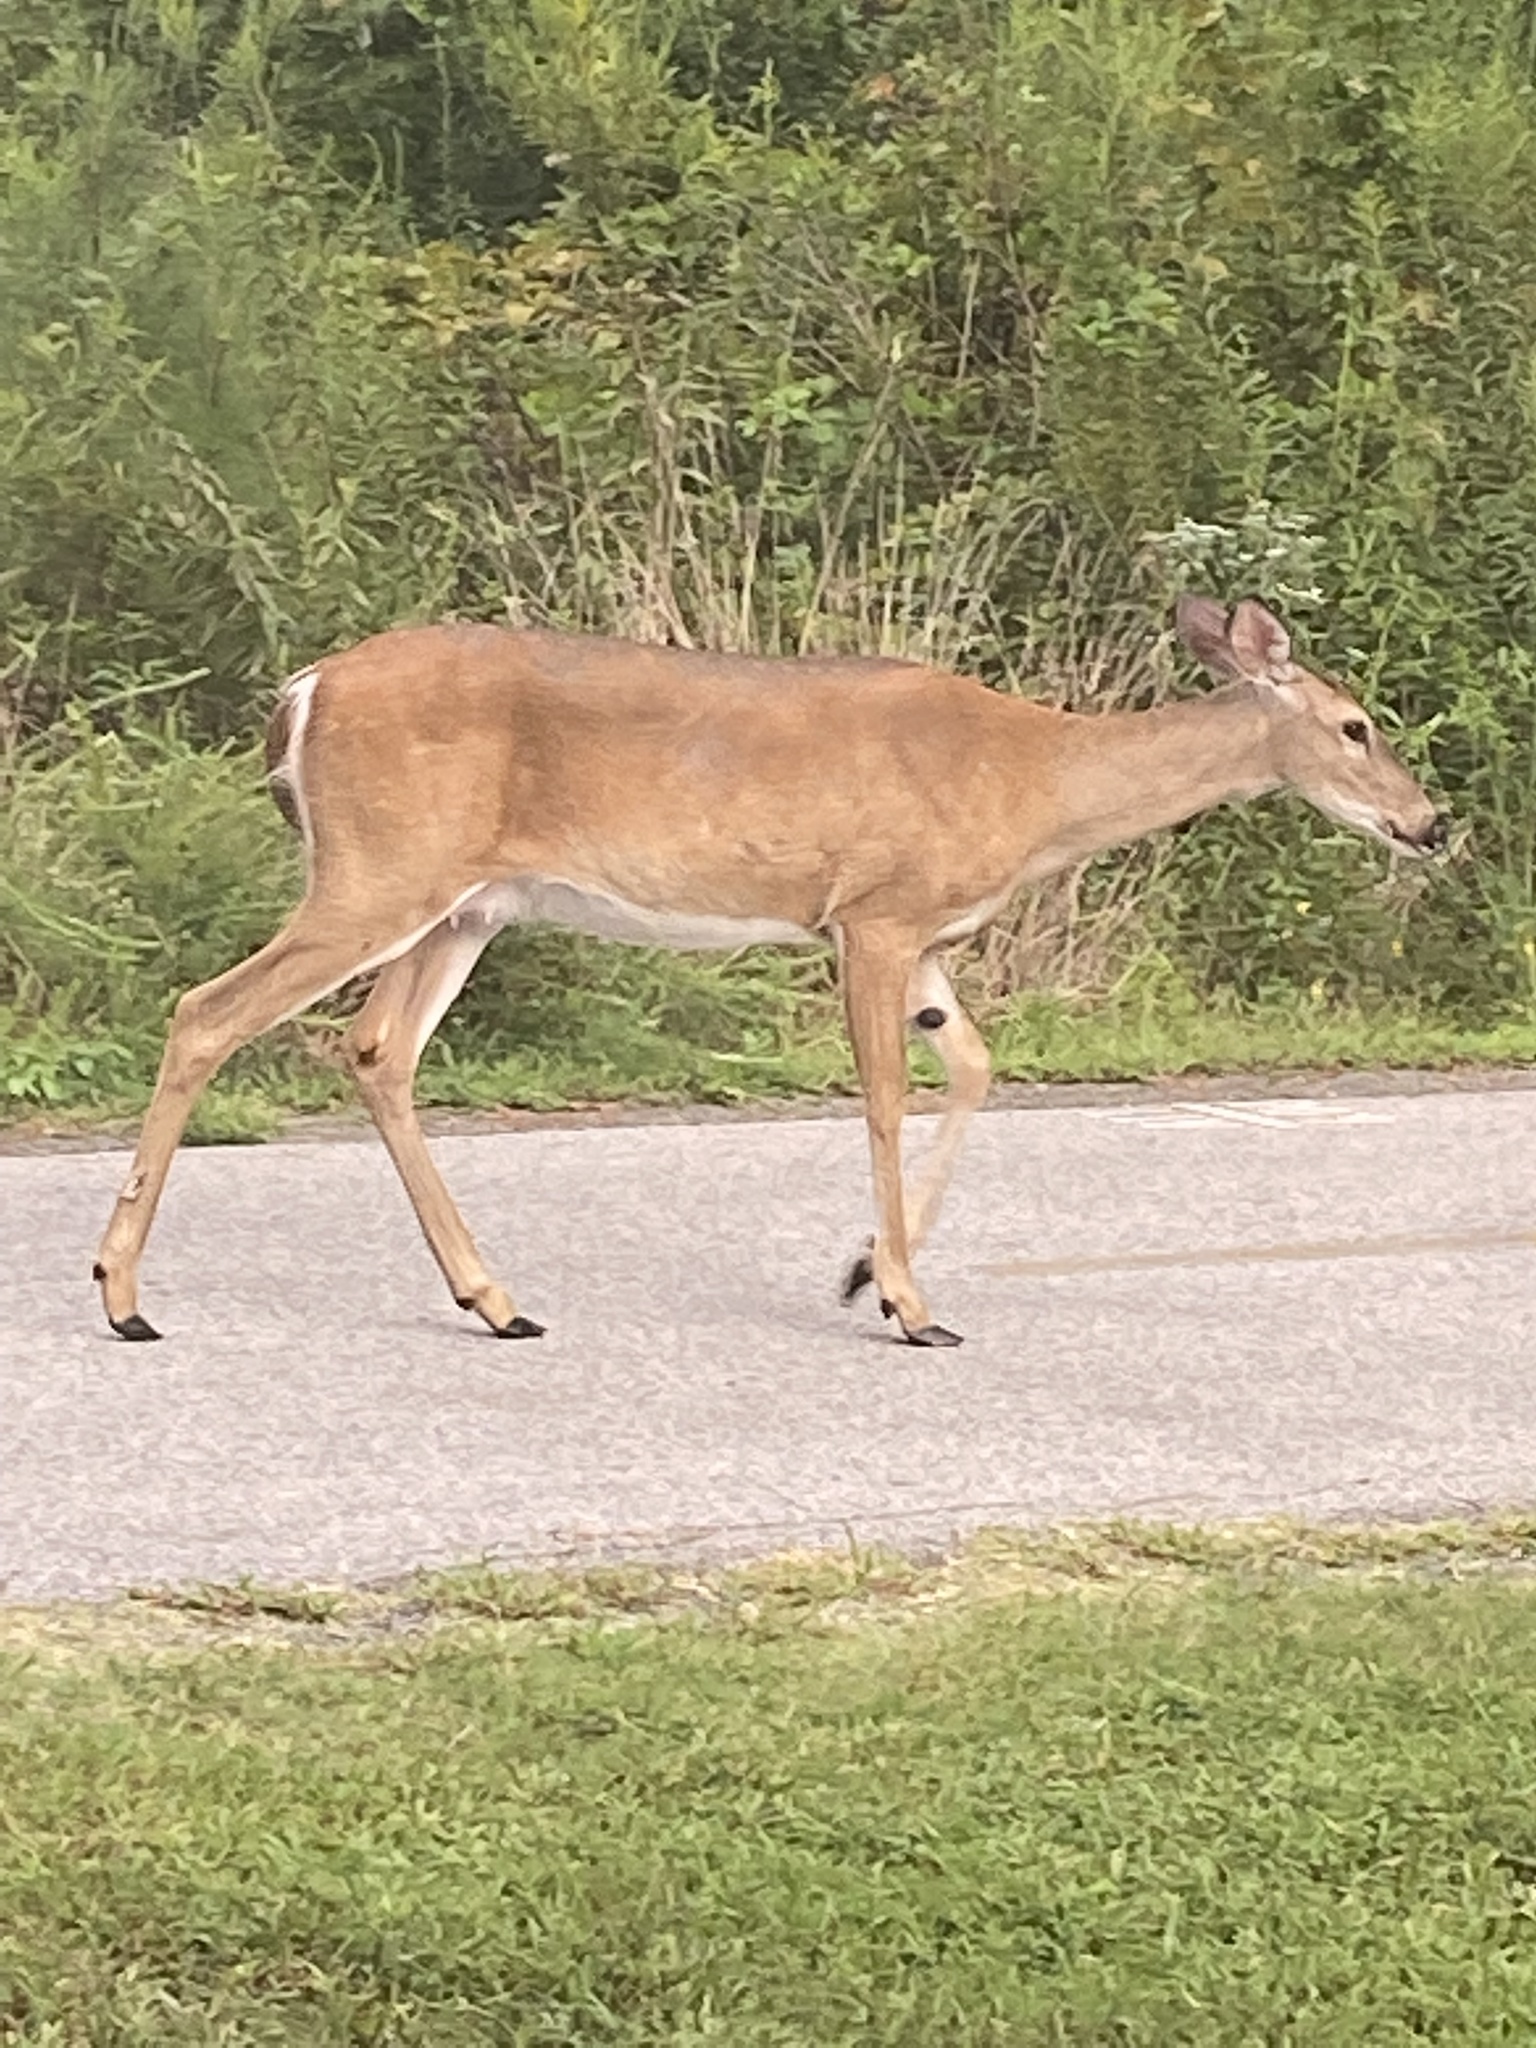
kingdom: Animalia
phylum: Chordata
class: Mammalia
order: Artiodactyla
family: Cervidae
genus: Odocoileus
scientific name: Odocoileus virginianus
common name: White-tailed deer
